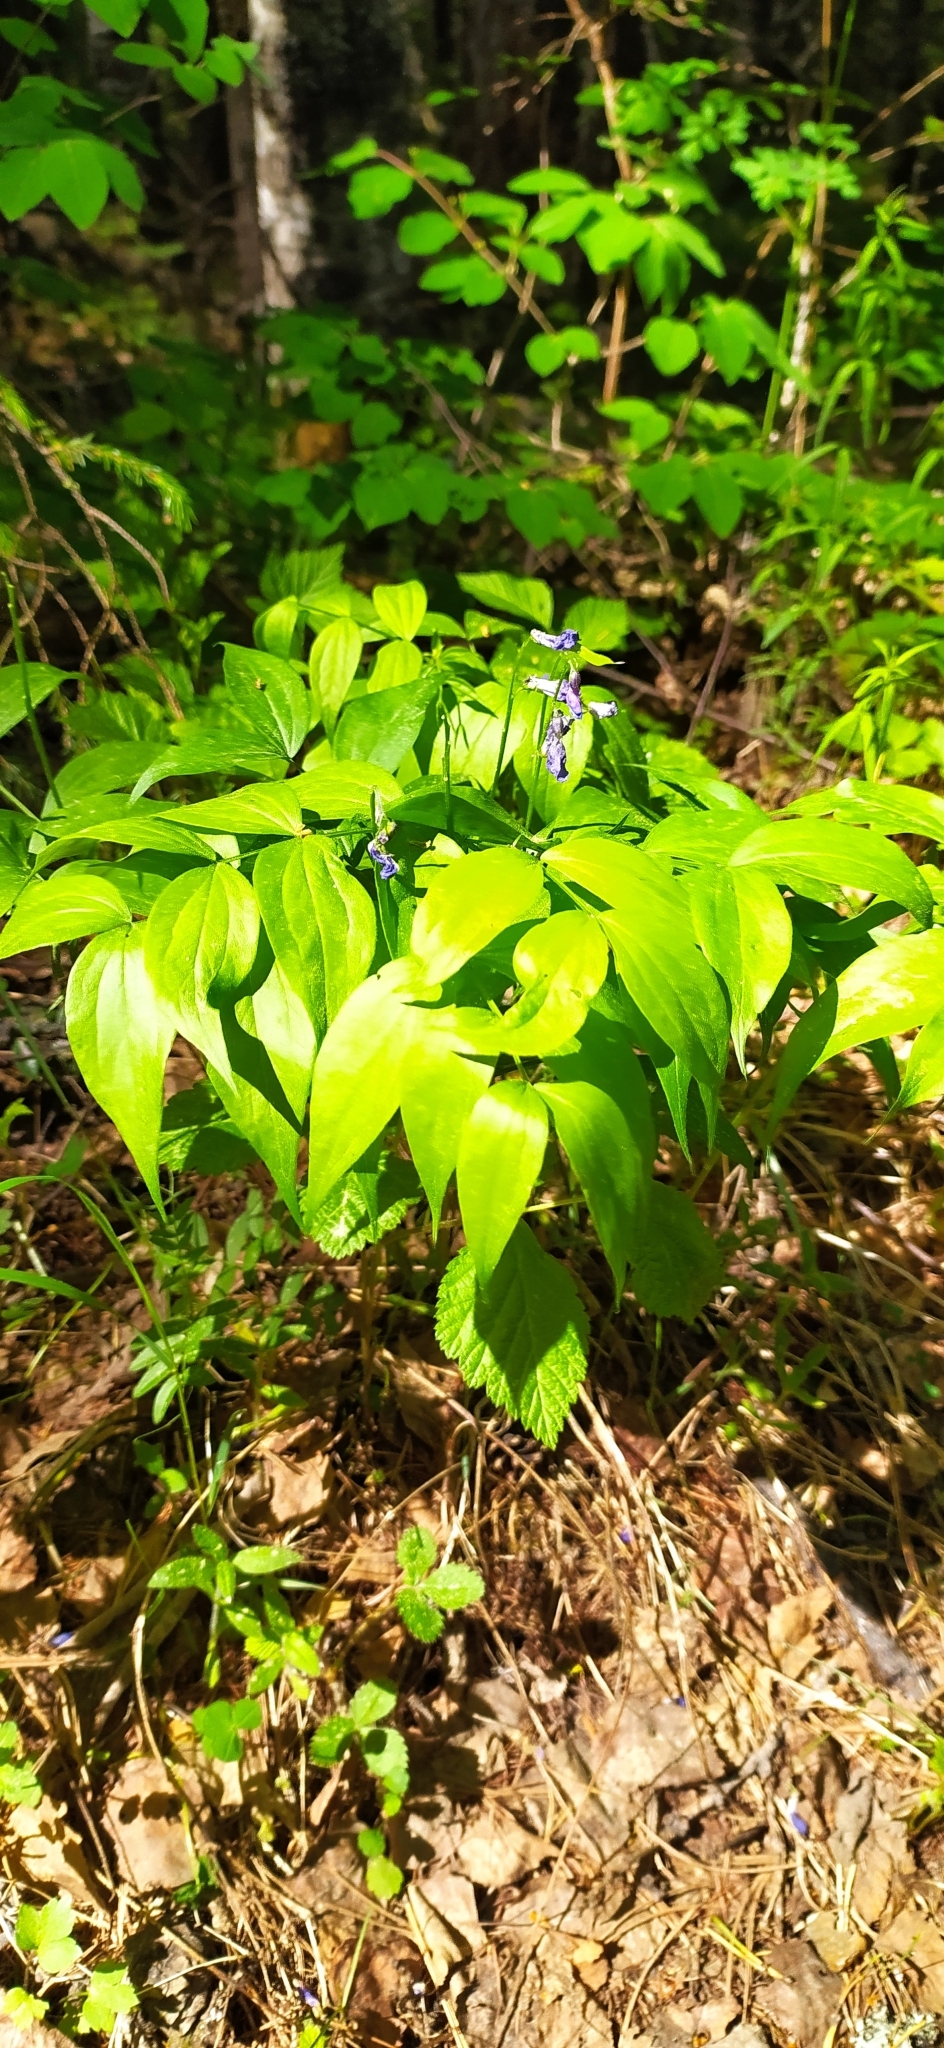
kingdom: Plantae
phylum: Tracheophyta
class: Magnoliopsida
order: Fabales
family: Fabaceae
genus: Lathyrus
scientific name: Lathyrus vernus
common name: Spring pea
